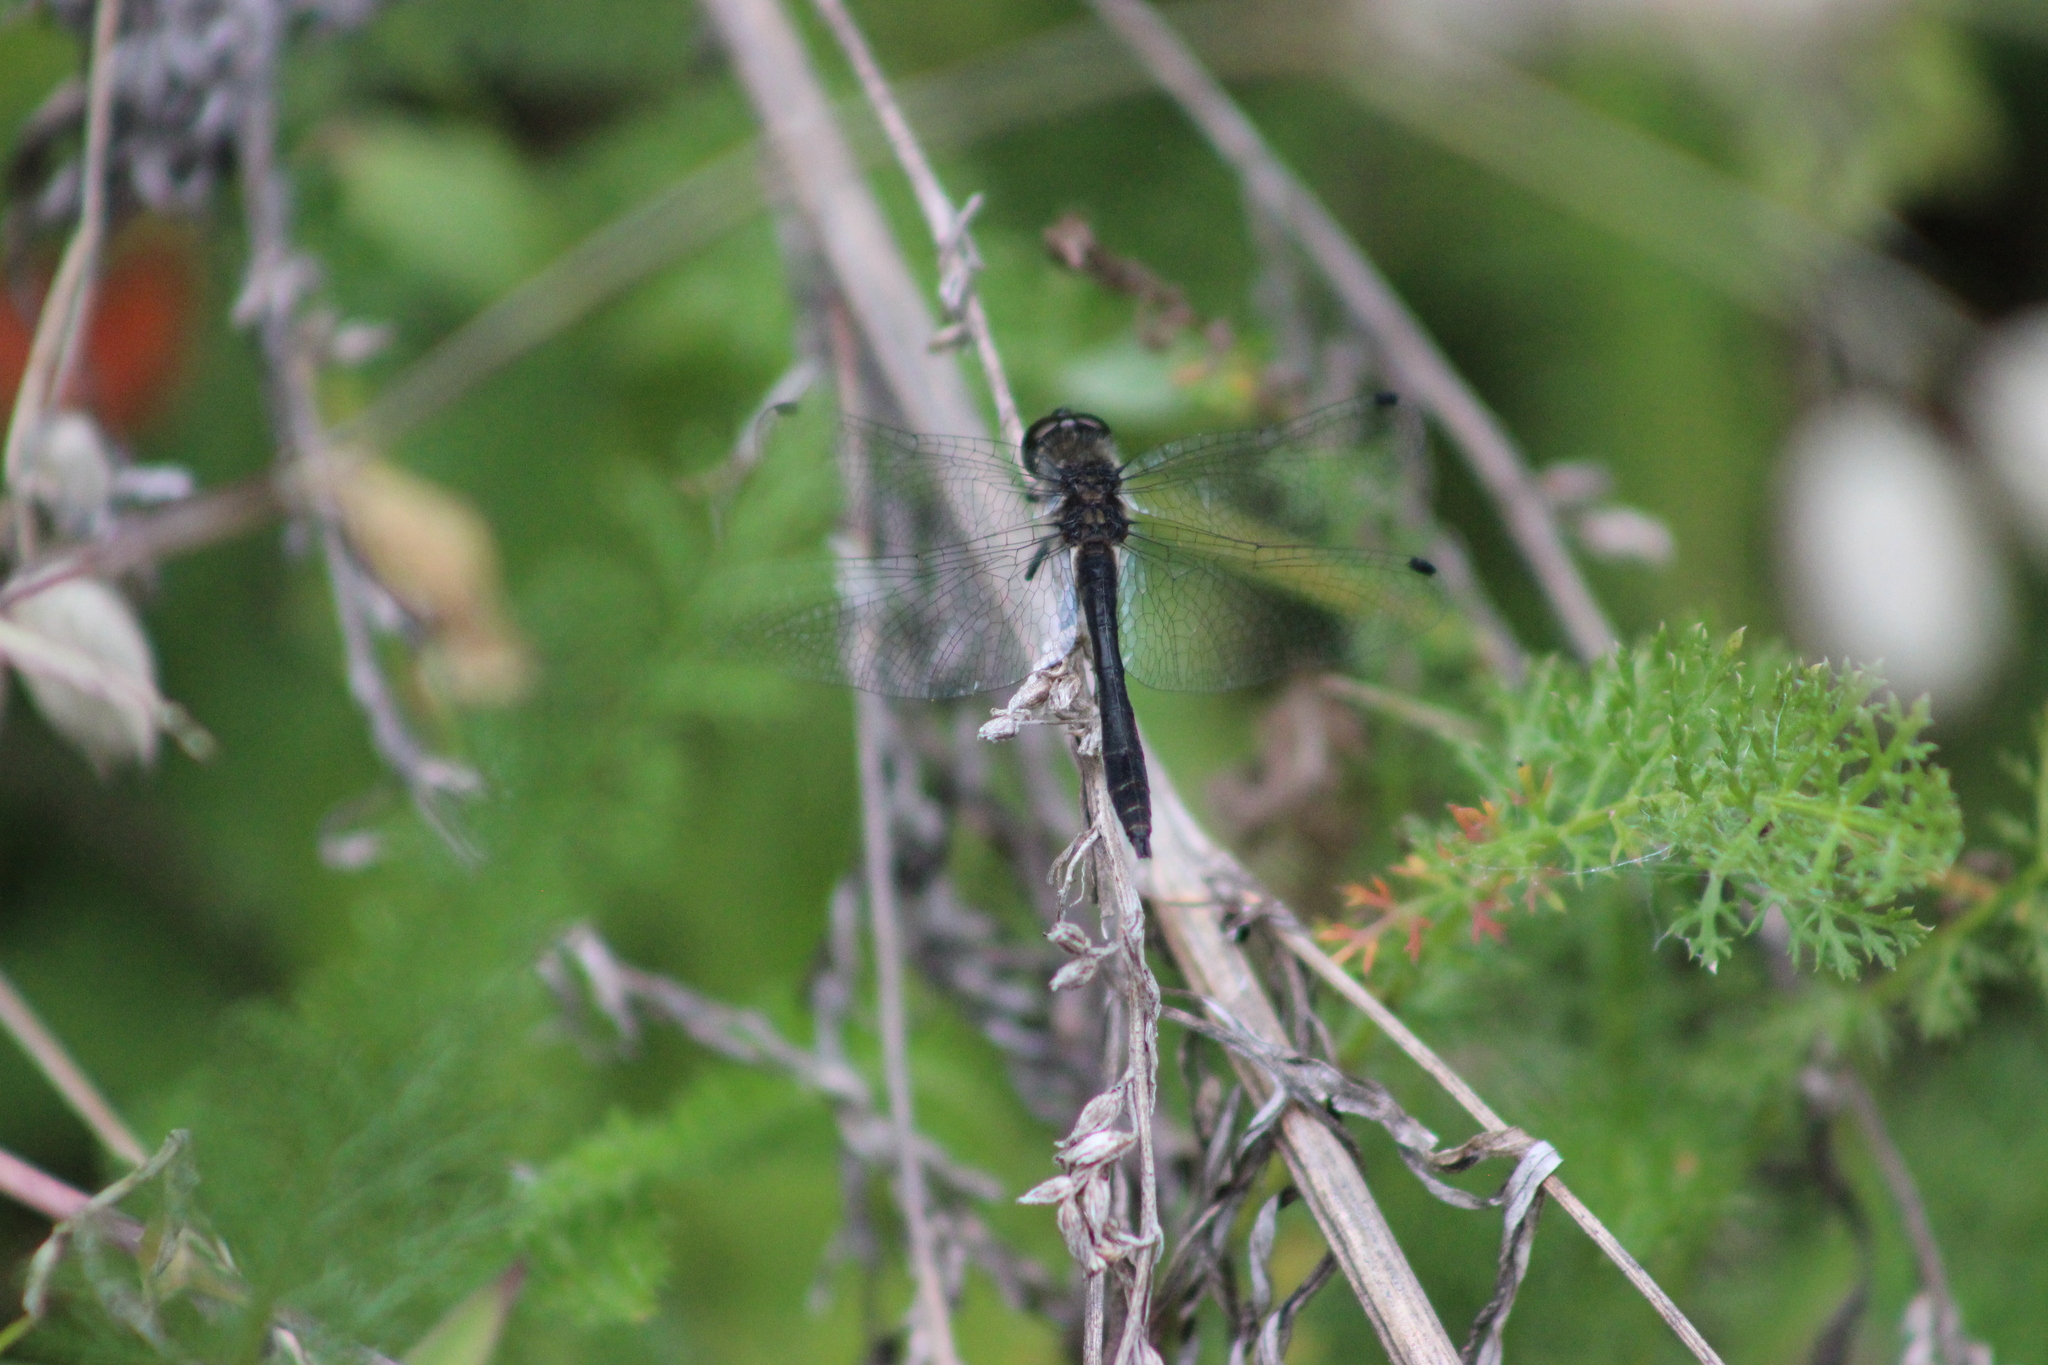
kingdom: Animalia
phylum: Arthropoda
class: Insecta
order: Odonata
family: Libellulidae
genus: Sympetrum
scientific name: Sympetrum danae
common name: Black darter
